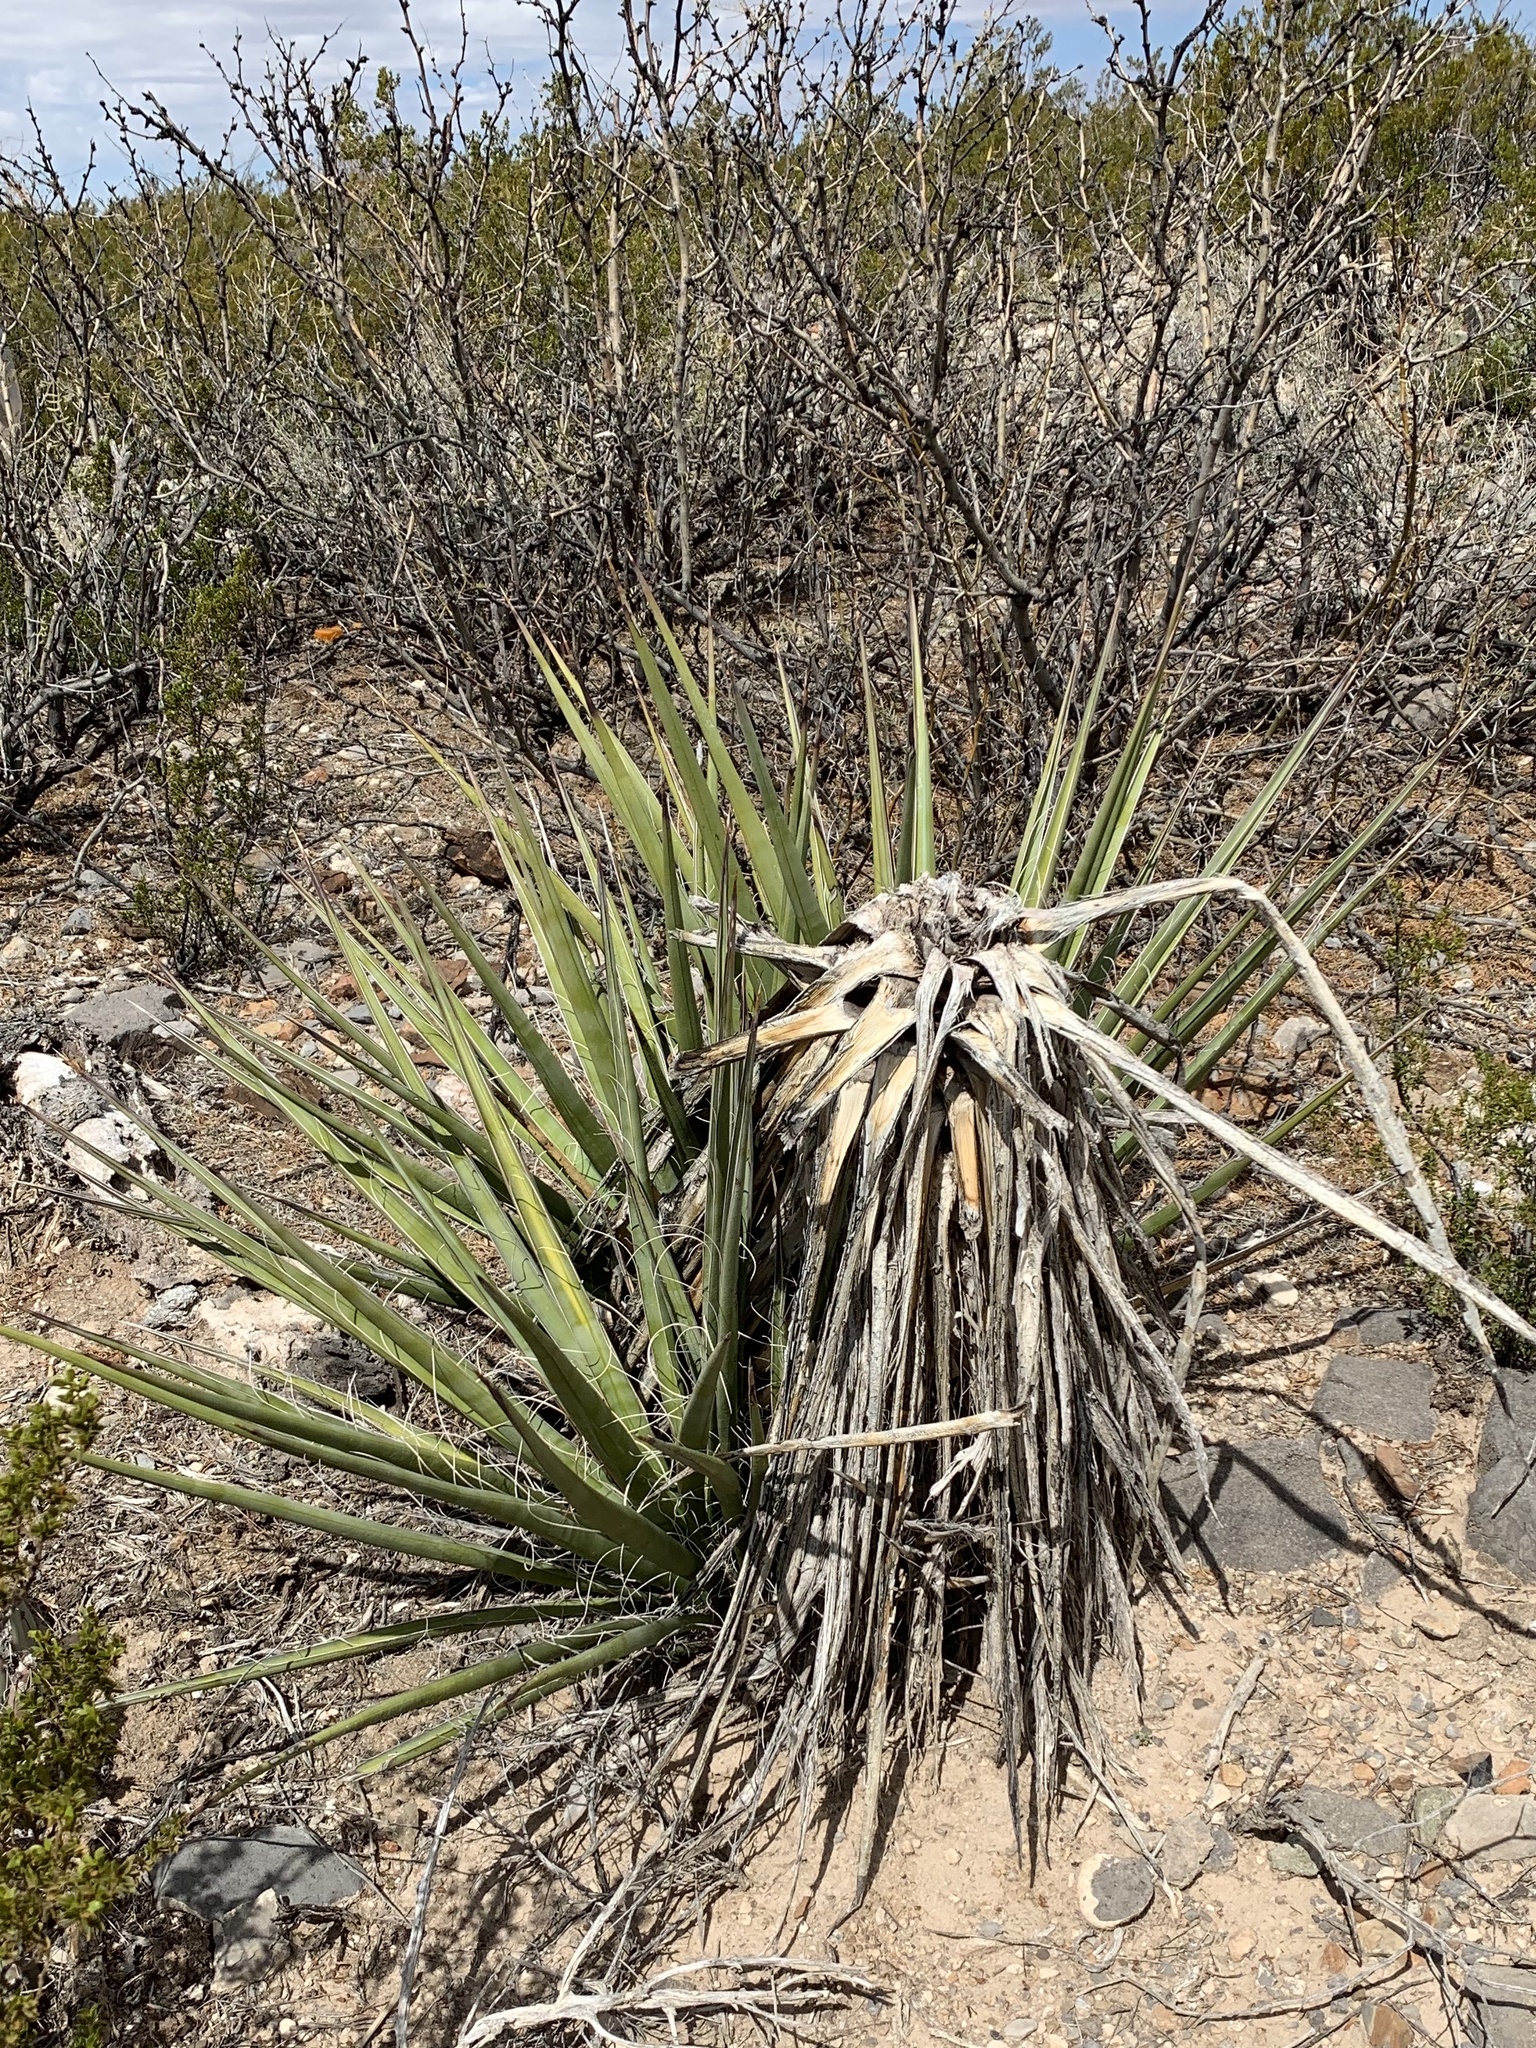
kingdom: Plantae
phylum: Tracheophyta
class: Liliopsida
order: Asparagales
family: Asparagaceae
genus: Yucca
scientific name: Yucca treculiana
